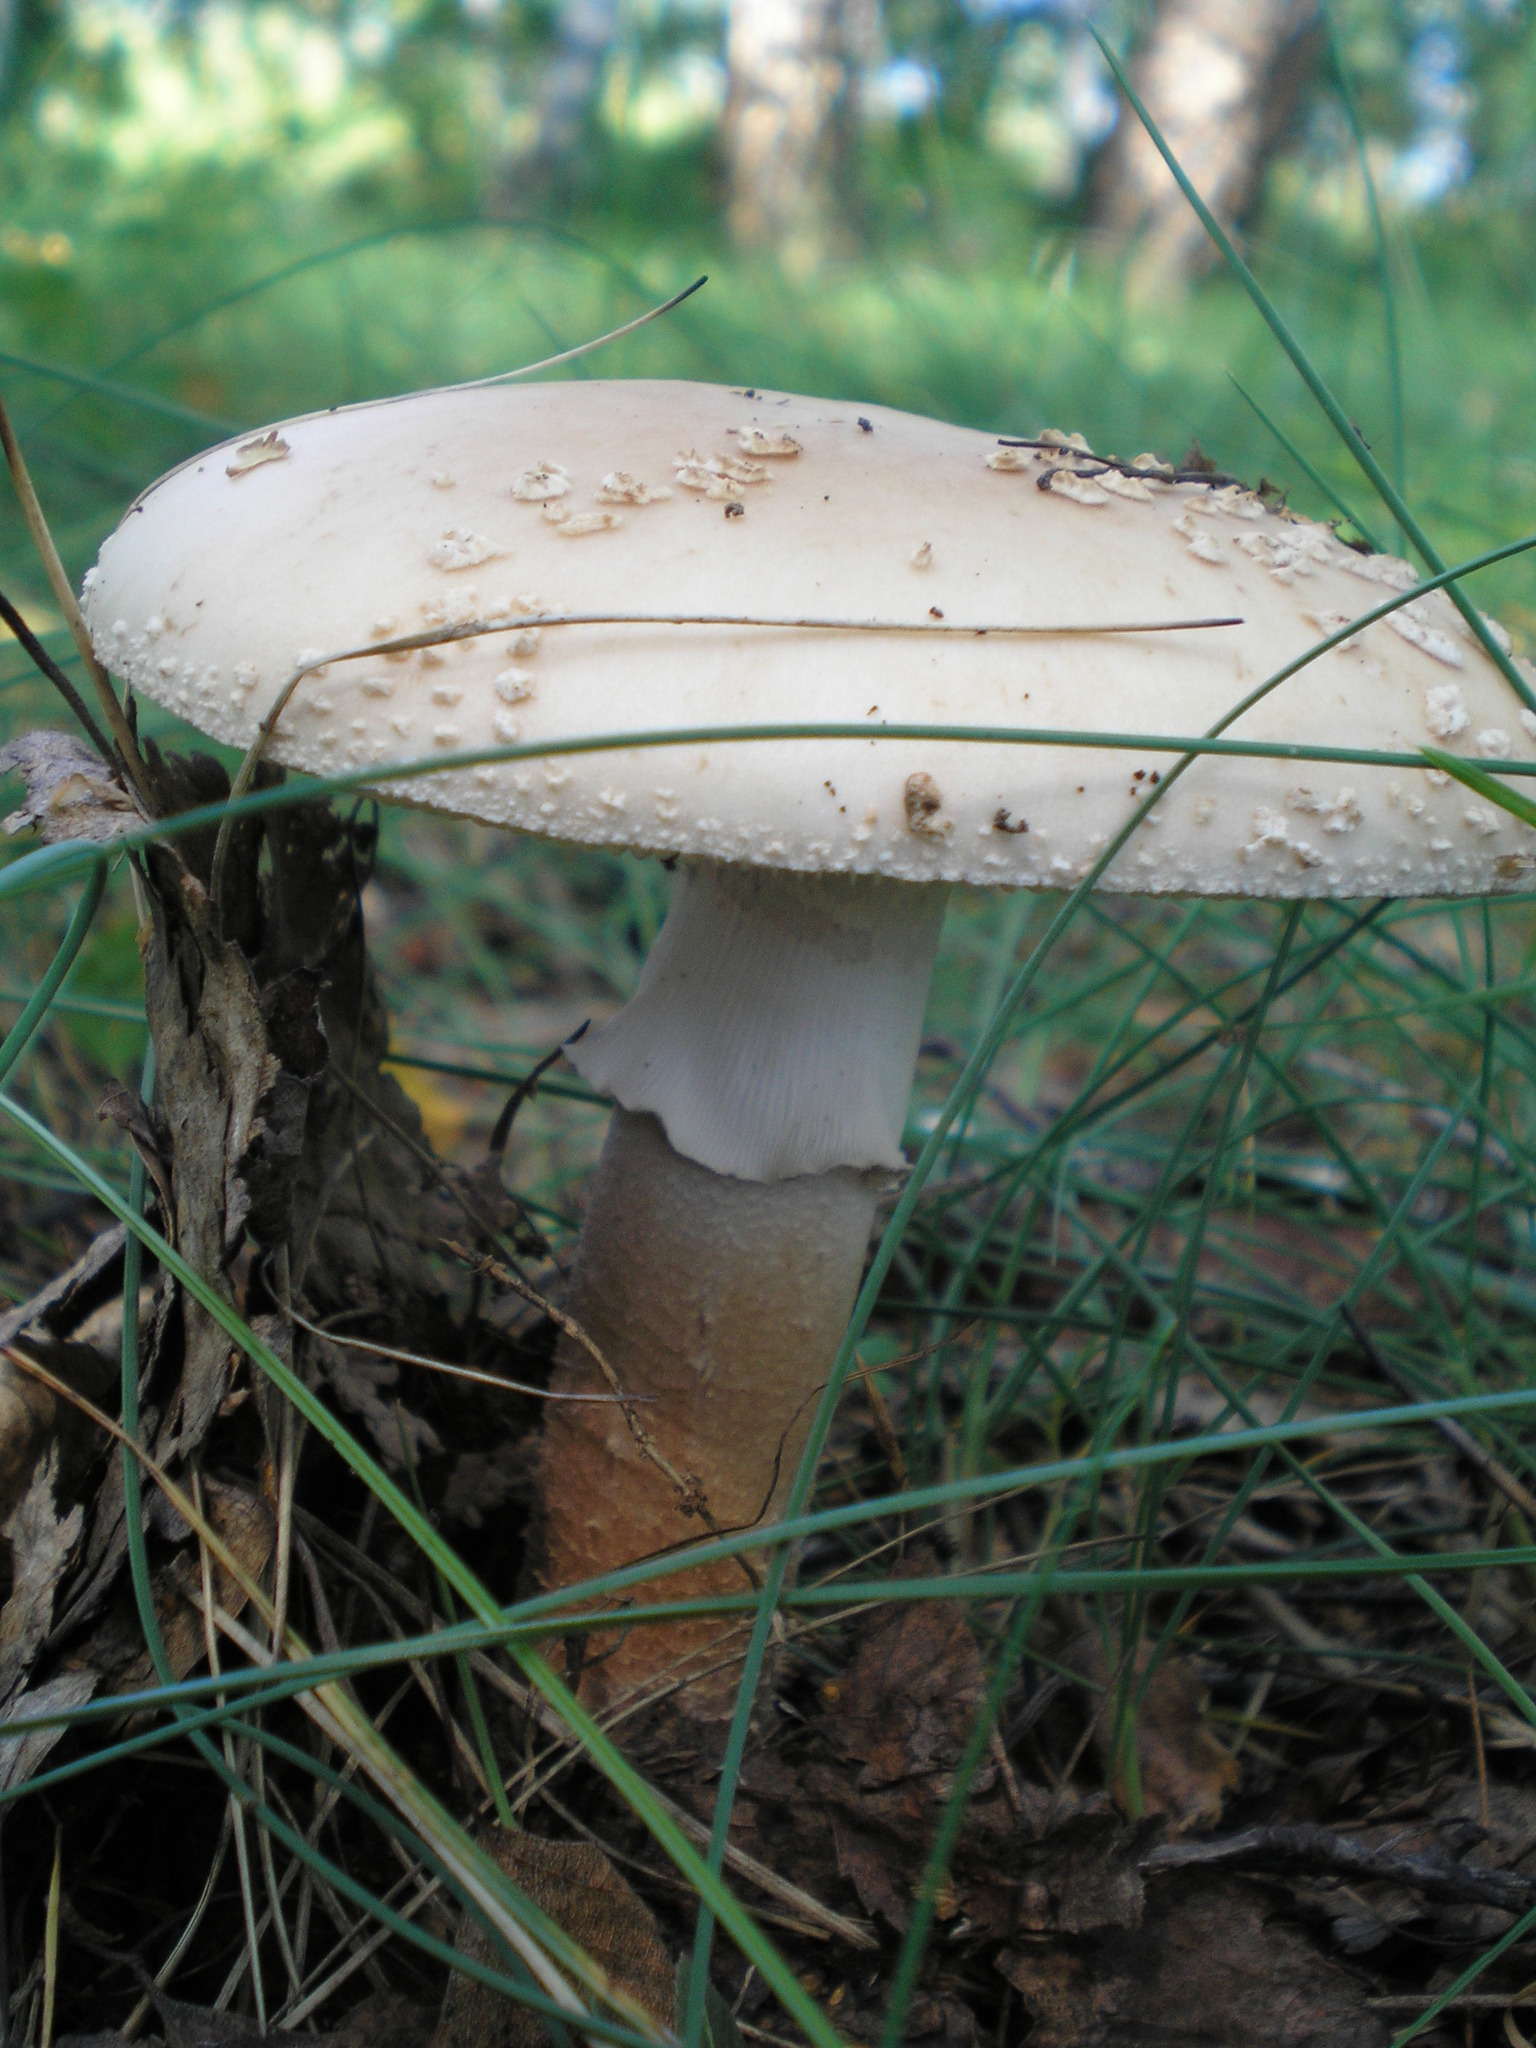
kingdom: Fungi
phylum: Basidiomycota
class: Agaricomycetes
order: Agaricales
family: Amanitaceae
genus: Amanita
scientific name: Amanita rubescens
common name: Blusher
